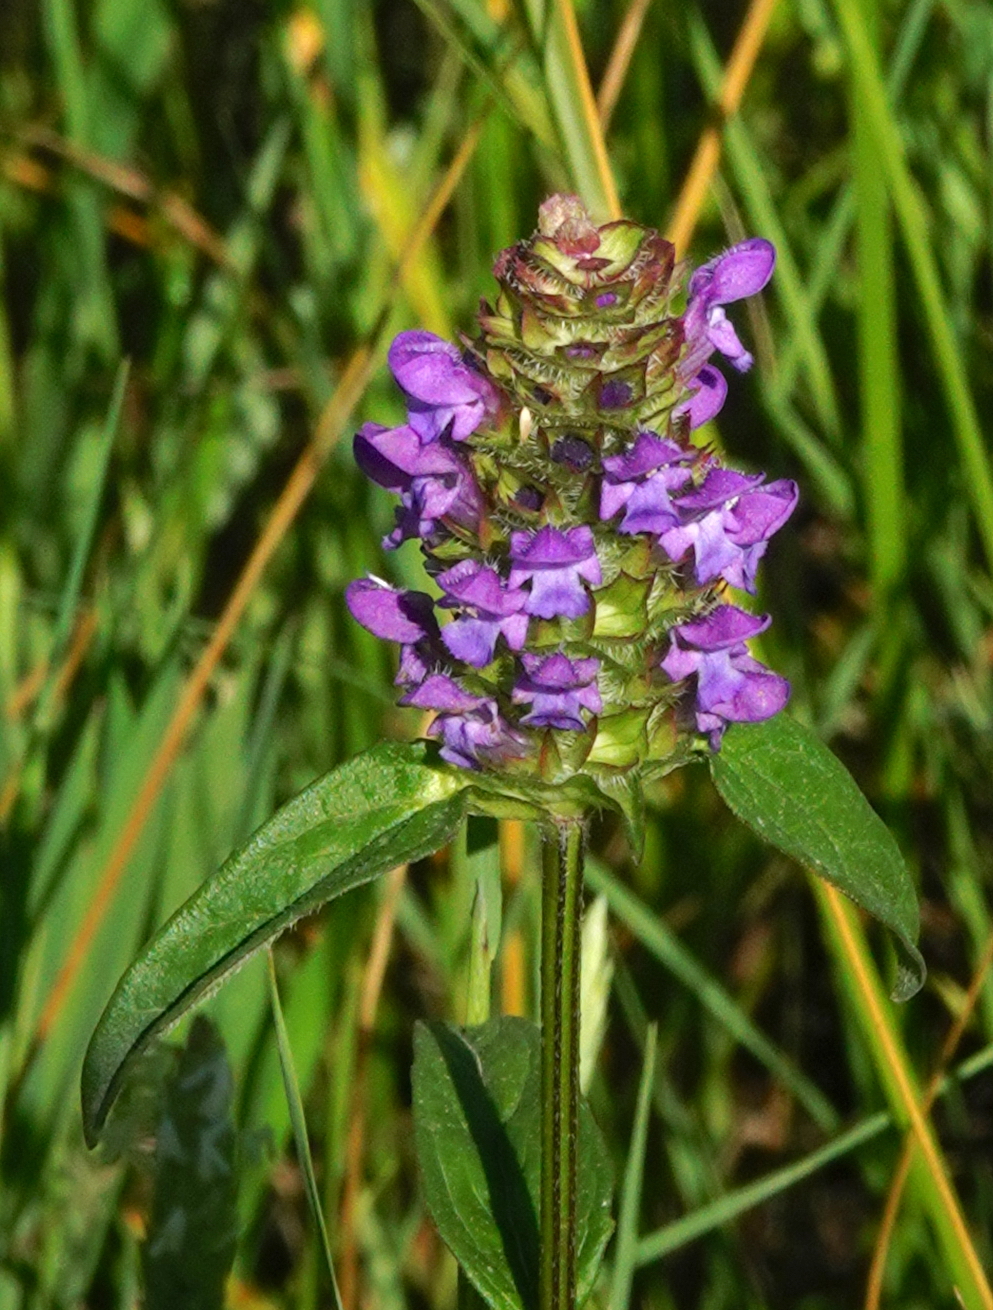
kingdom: Plantae
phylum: Tracheophyta
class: Magnoliopsida
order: Lamiales
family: Lamiaceae
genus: Prunella
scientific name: Prunella vulgaris
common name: Heal-all
